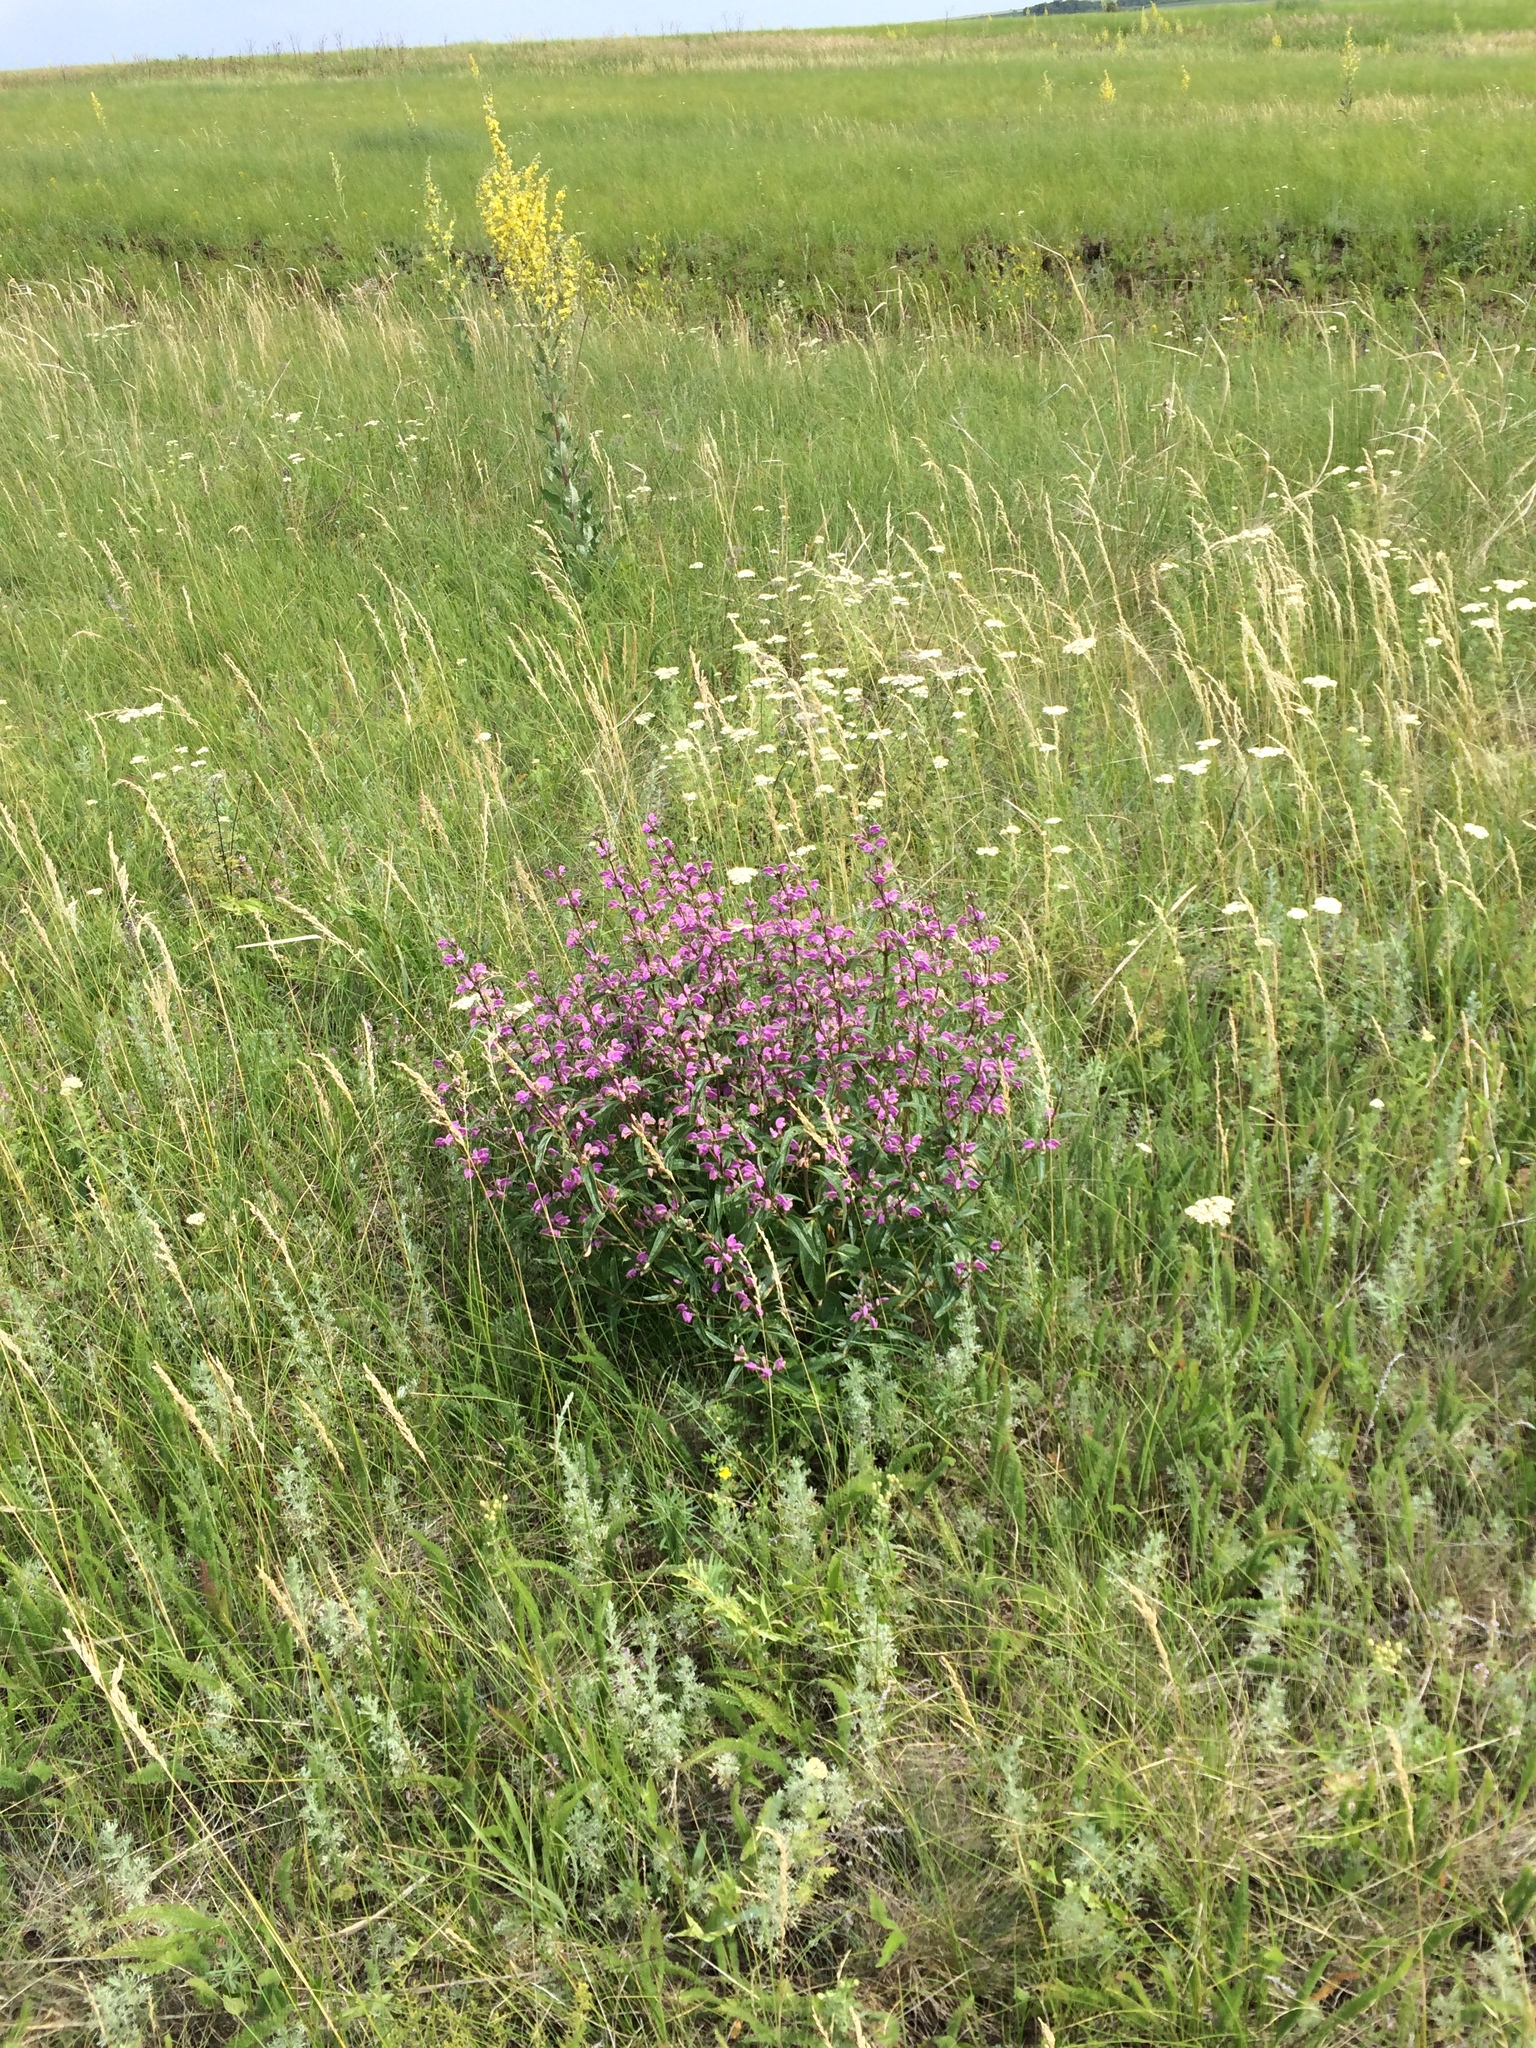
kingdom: Plantae
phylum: Tracheophyta
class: Magnoliopsida
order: Lamiales
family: Lamiaceae
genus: Phlomis
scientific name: Phlomis herba-venti
